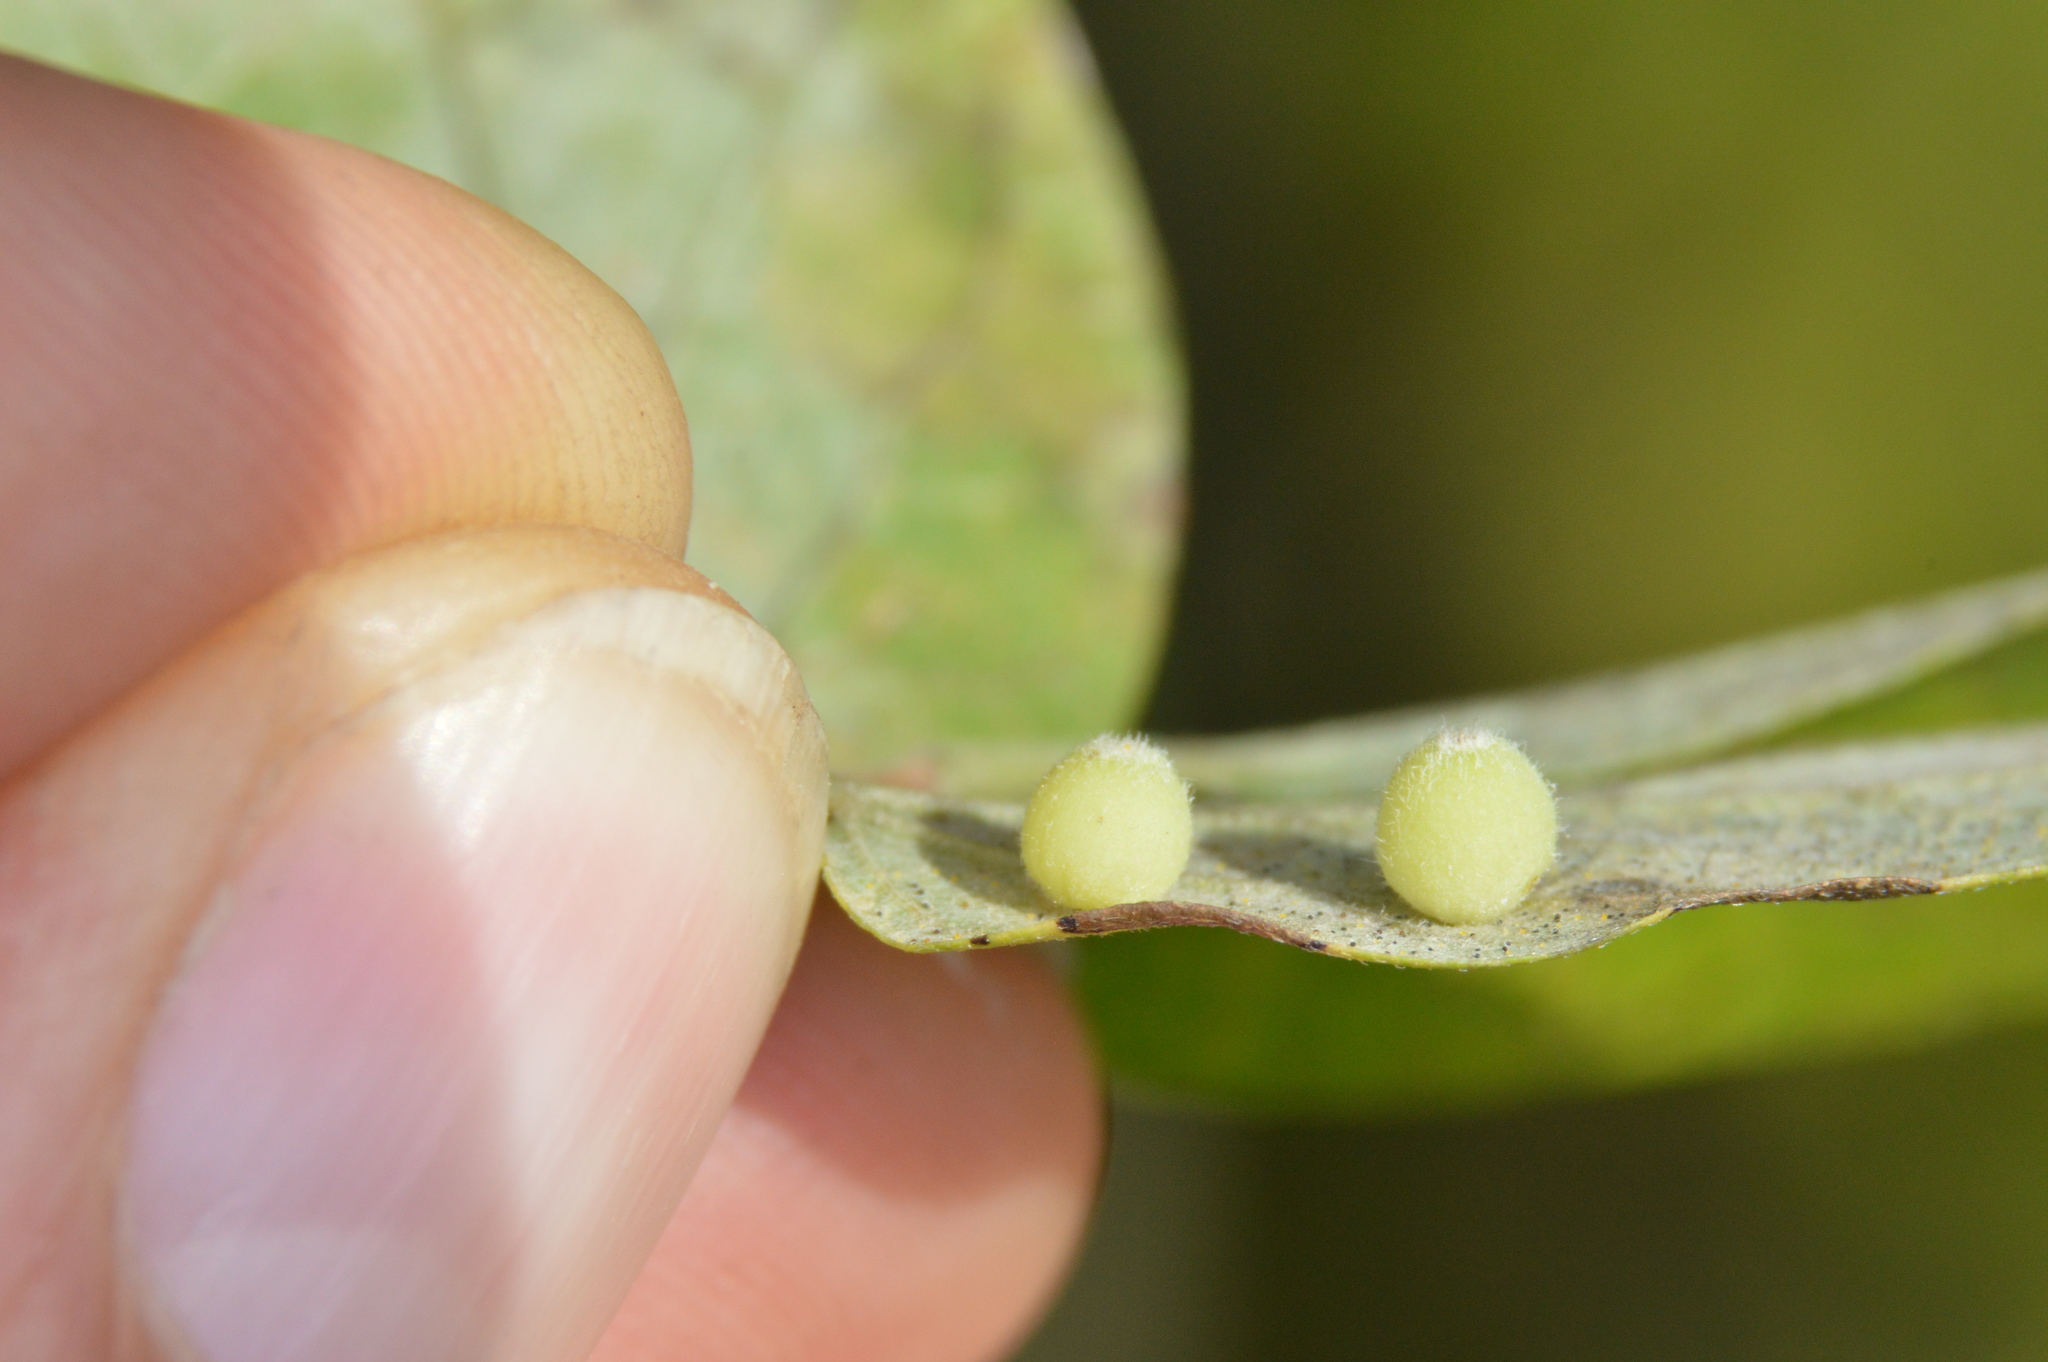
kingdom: Animalia
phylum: Arthropoda
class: Insecta
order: Diptera
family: Cecidomyiidae
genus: Celticecis
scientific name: Celticecis globosa
